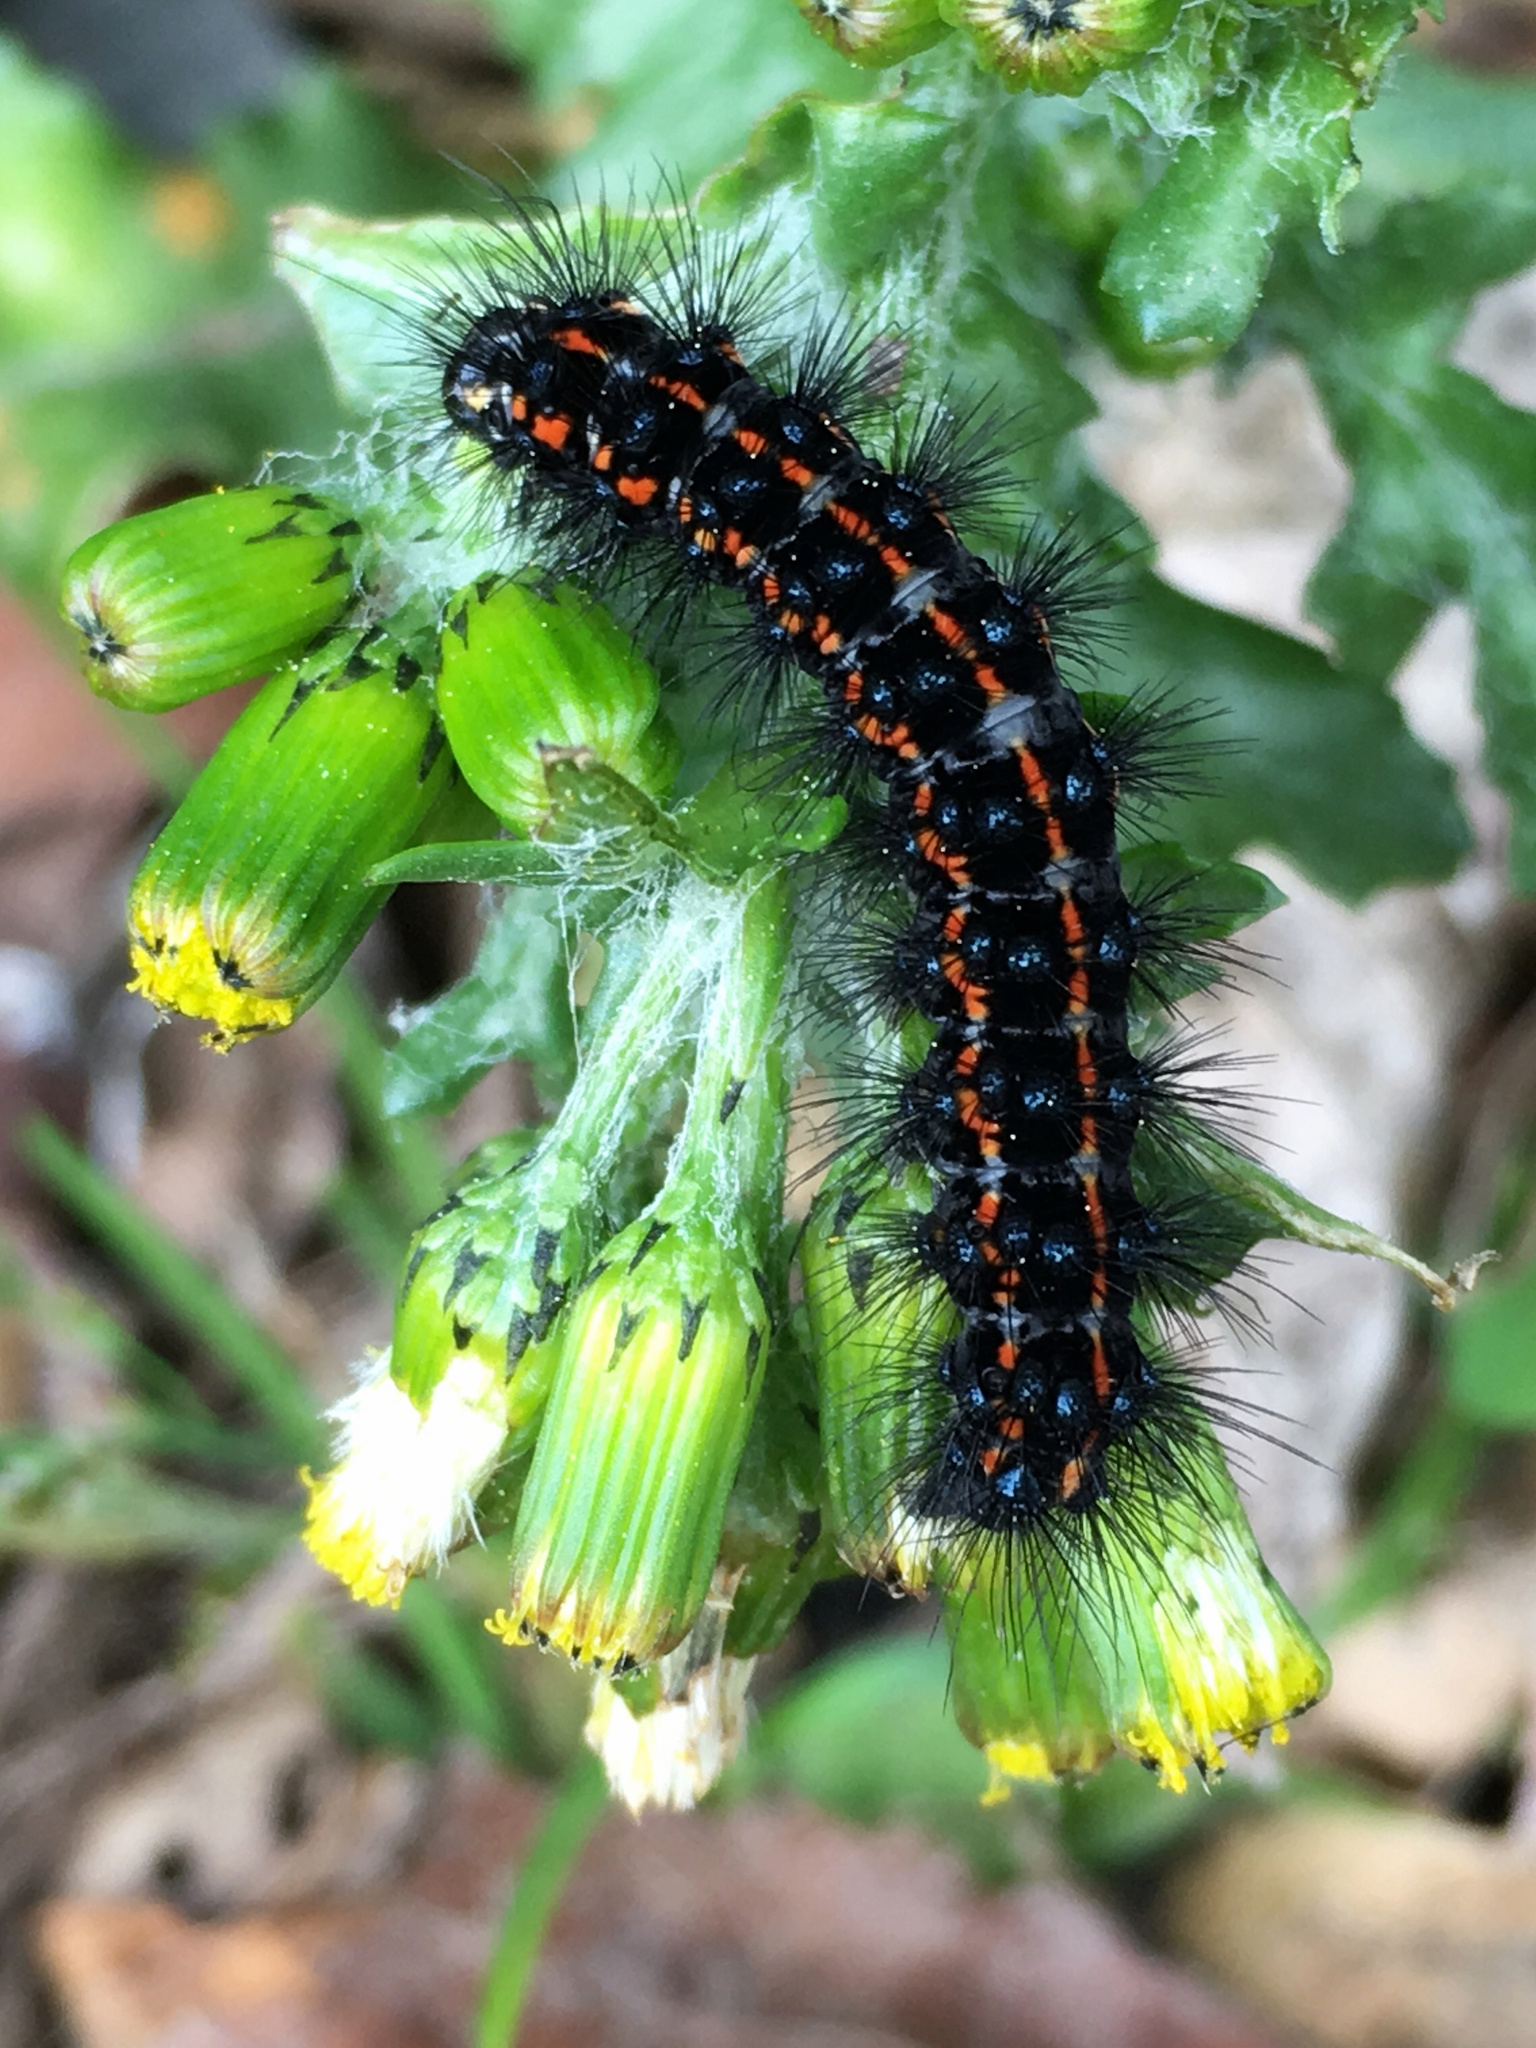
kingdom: Animalia
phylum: Arthropoda
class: Insecta
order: Lepidoptera
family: Erebidae
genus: Nyctemera
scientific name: Nyctemera annulatum
